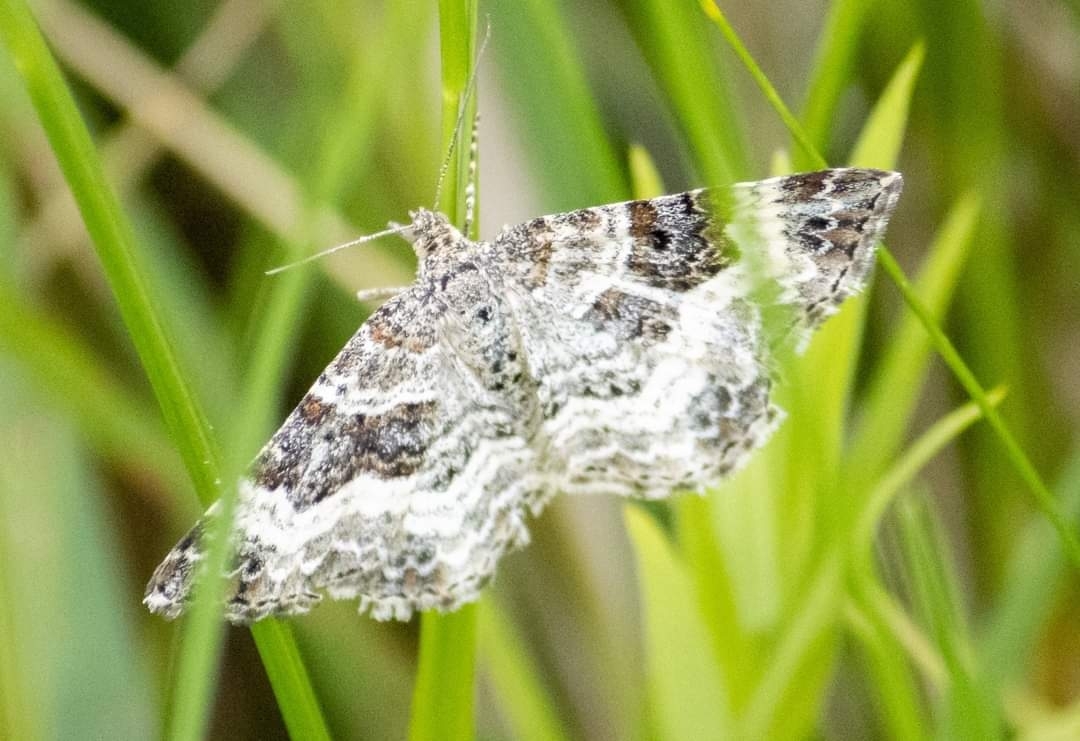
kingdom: Animalia
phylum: Arthropoda
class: Insecta
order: Lepidoptera
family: Geometridae
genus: Epirrhoe
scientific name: Epirrhoe alternata
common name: Common carpet
